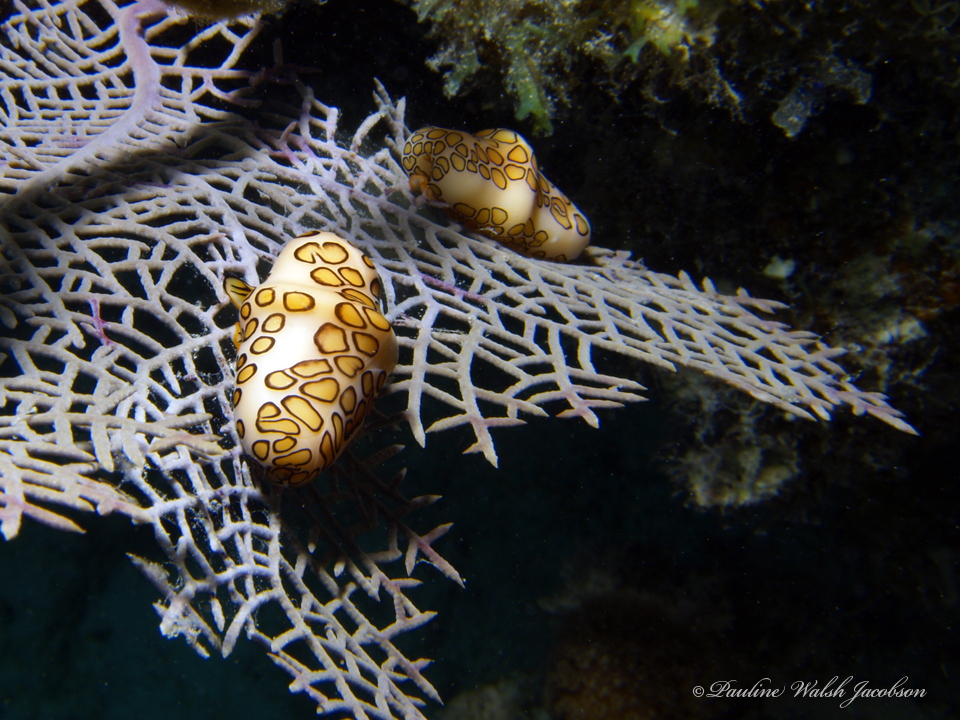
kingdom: Animalia
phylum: Mollusca
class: Gastropoda
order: Littorinimorpha
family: Ovulidae
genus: Cyphoma
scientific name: Cyphoma gibbosum
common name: Flamingo tongue
